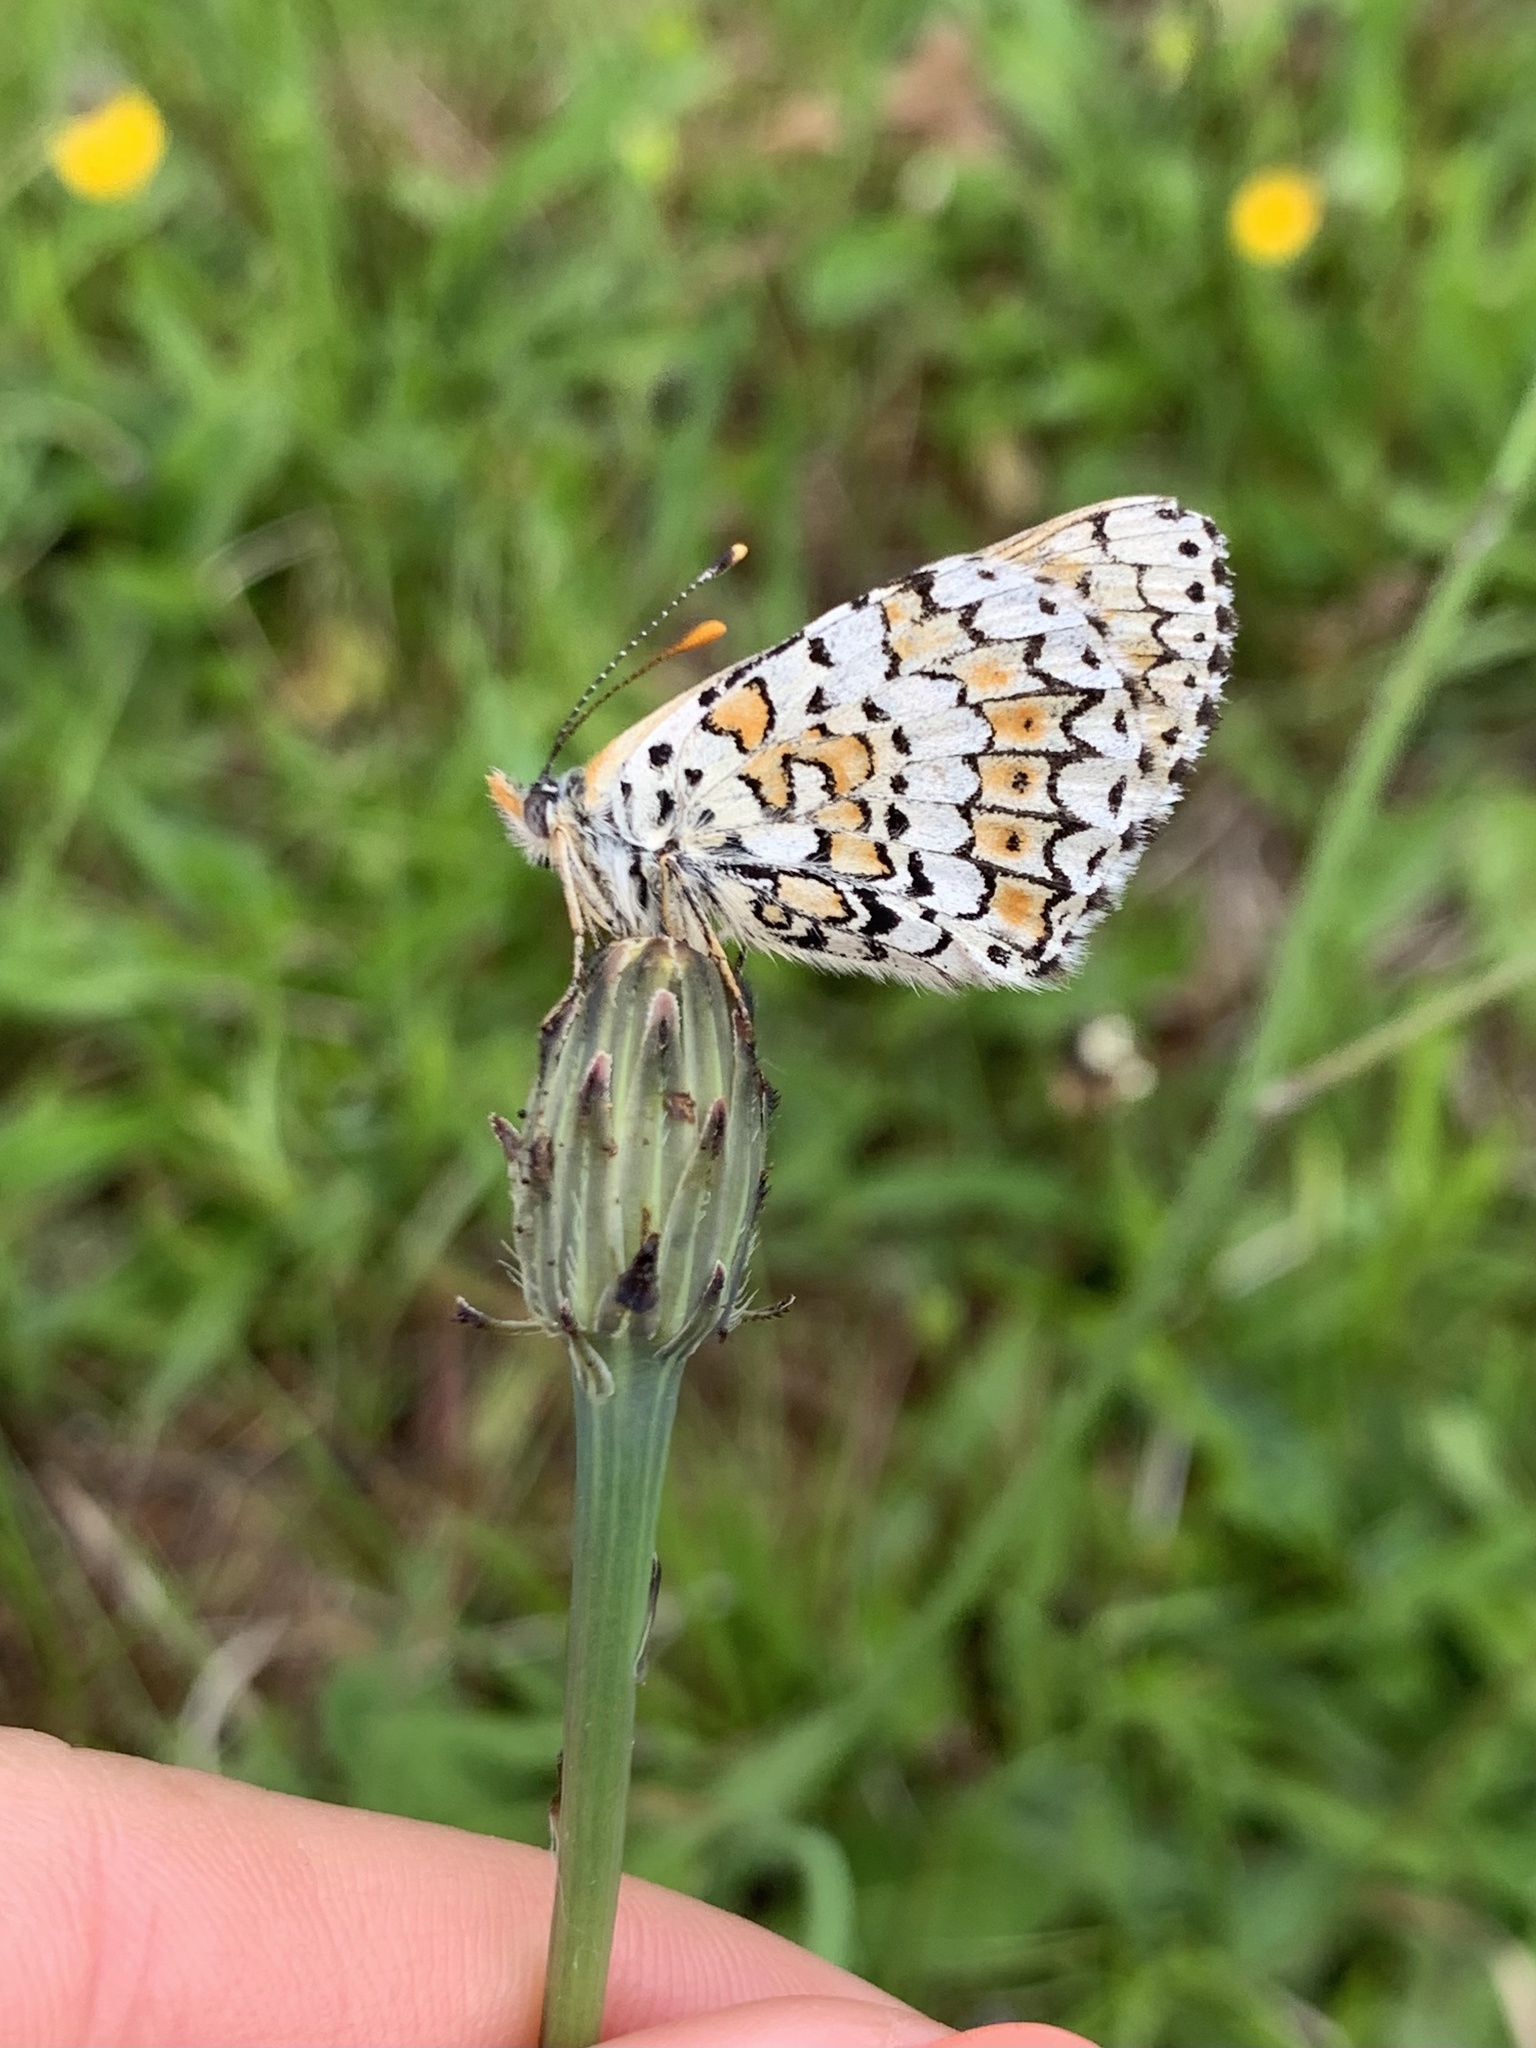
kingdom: Animalia
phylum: Arthropoda
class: Insecta
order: Lepidoptera
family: Nymphalidae
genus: Melitaea
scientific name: Melitaea cinxia
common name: Glanville fritillary
